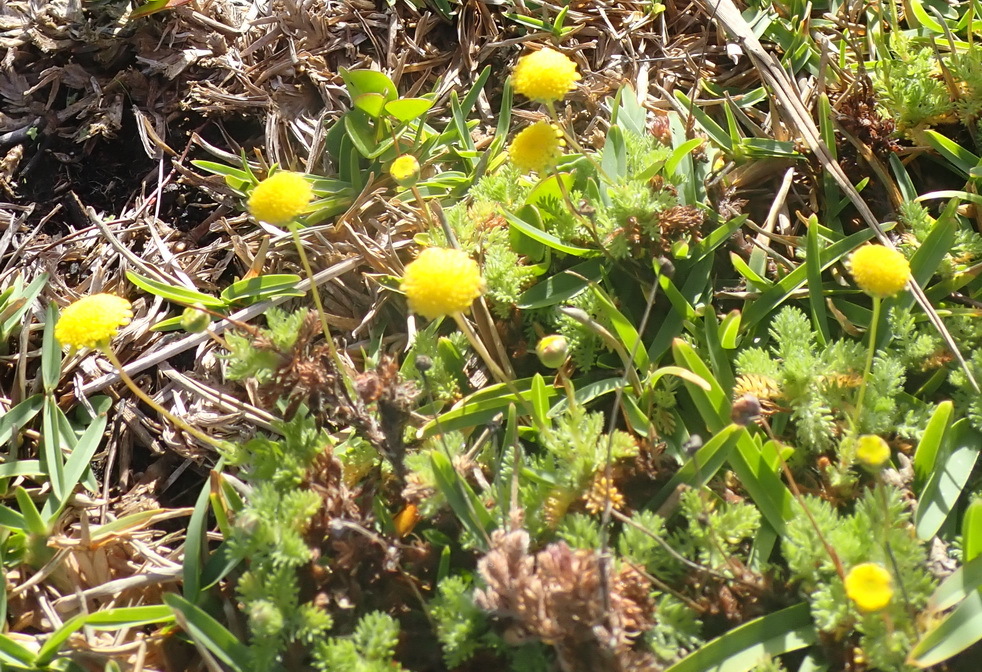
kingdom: Plantae
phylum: Tracheophyta
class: Magnoliopsida
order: Asterales
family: Asteraceae
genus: Cotula
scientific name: Cotula discolor
